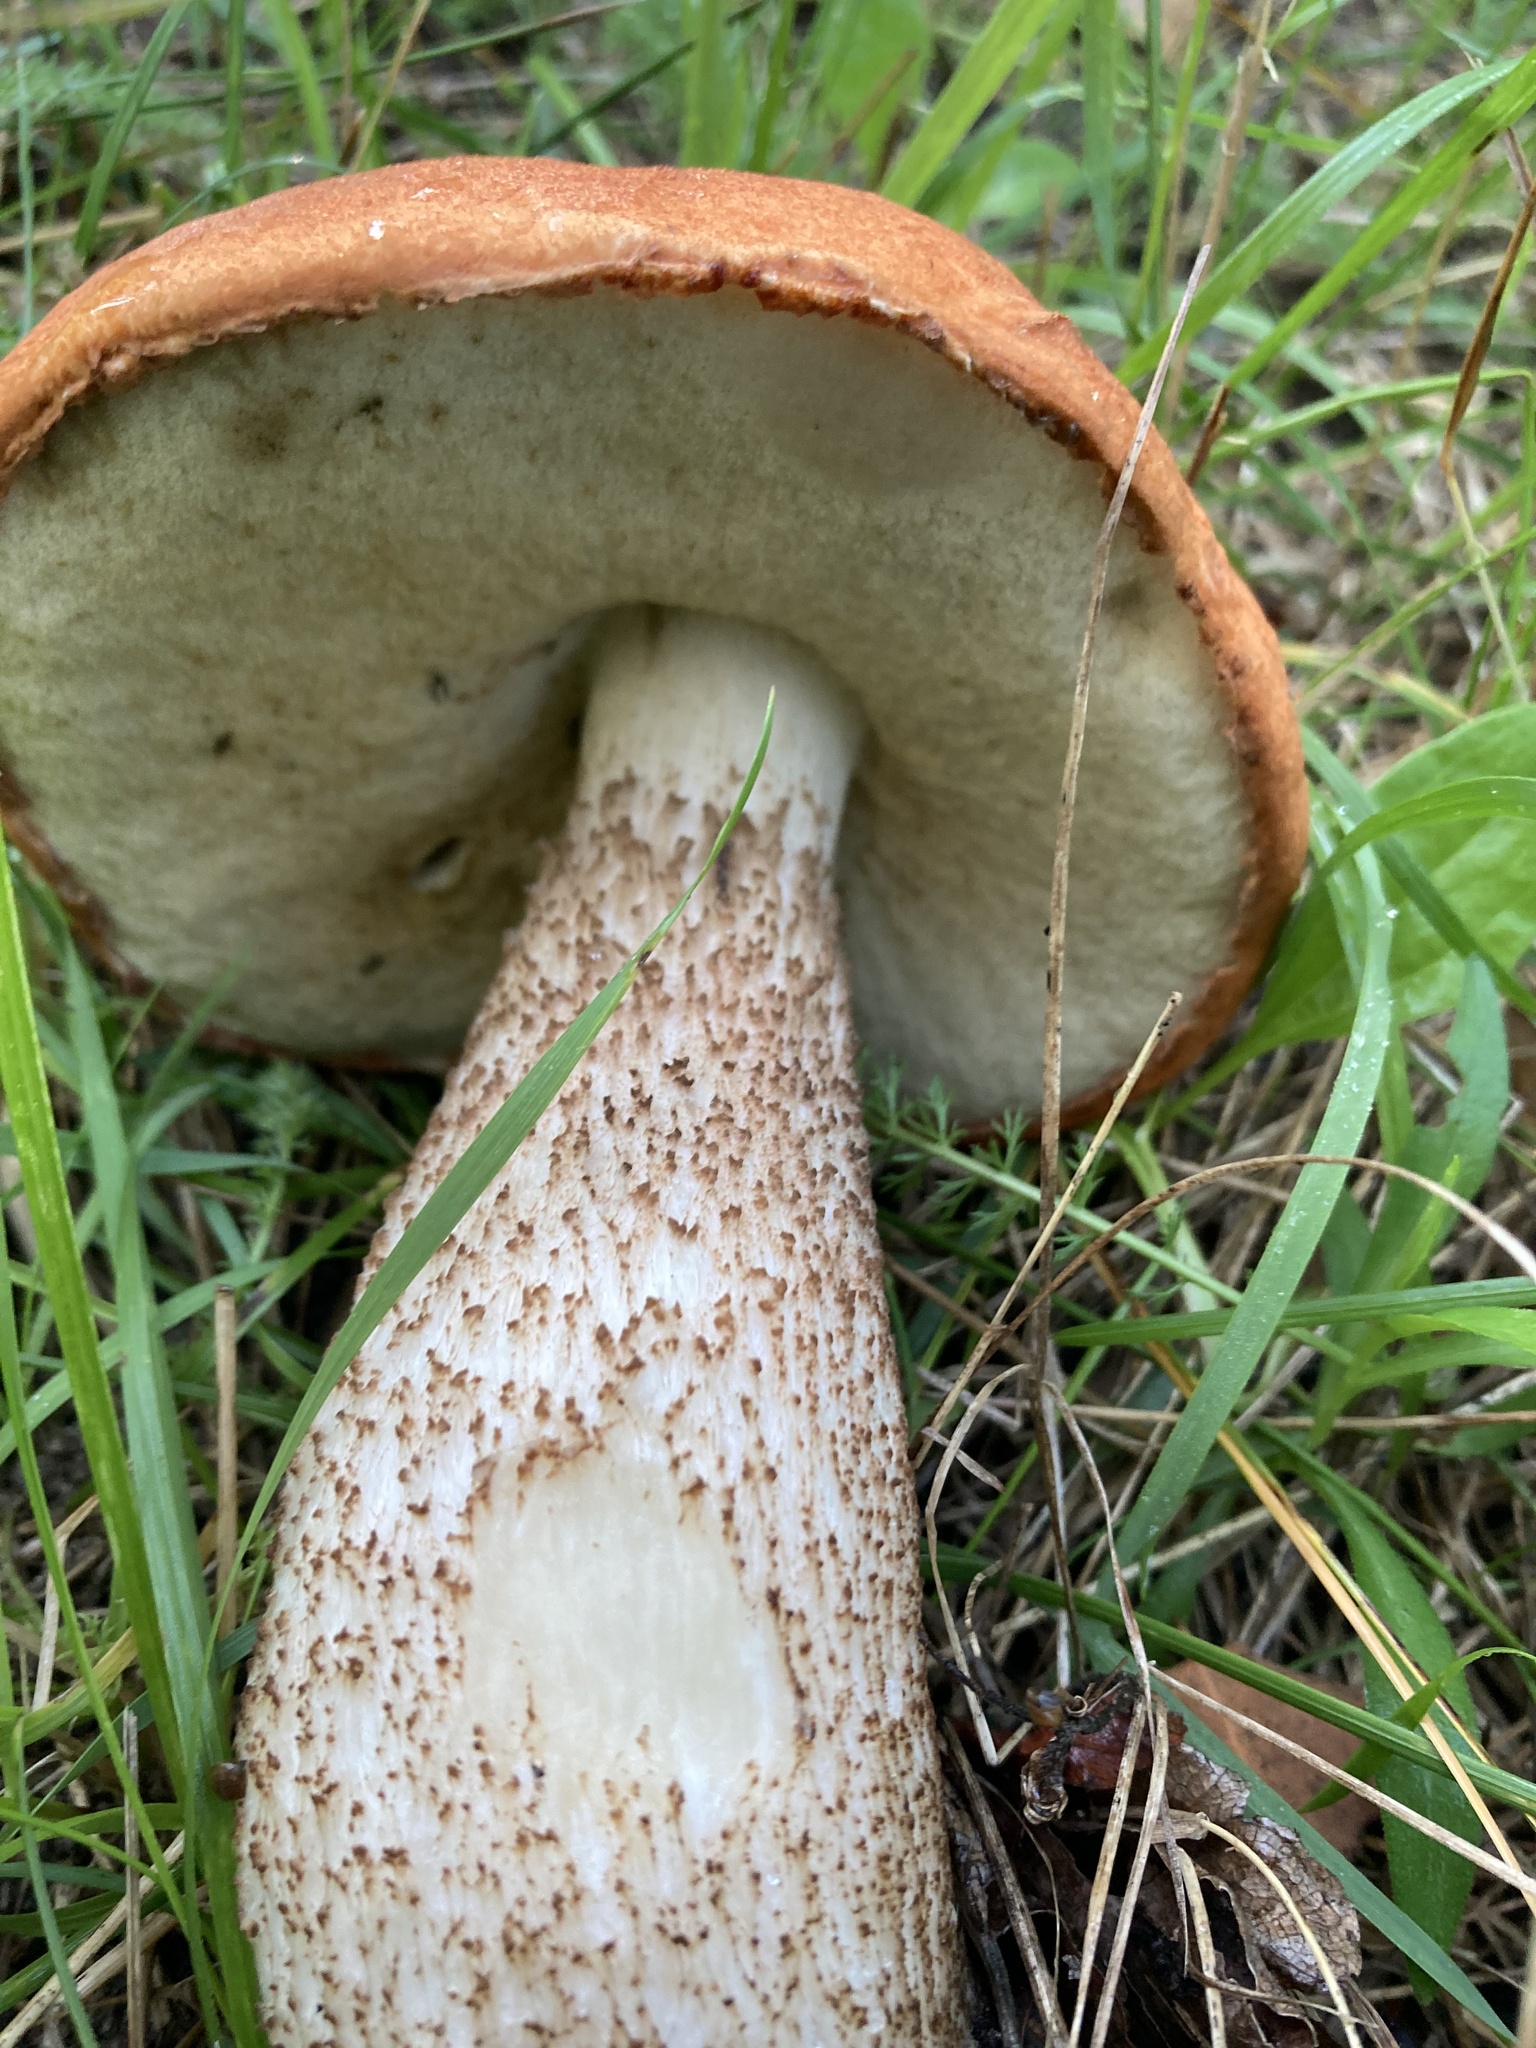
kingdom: Fungi
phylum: Basidiomycota
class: Agaricomycetes
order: Boletales
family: Boletaceae
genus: Leccinum
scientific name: Leccinum insigne
